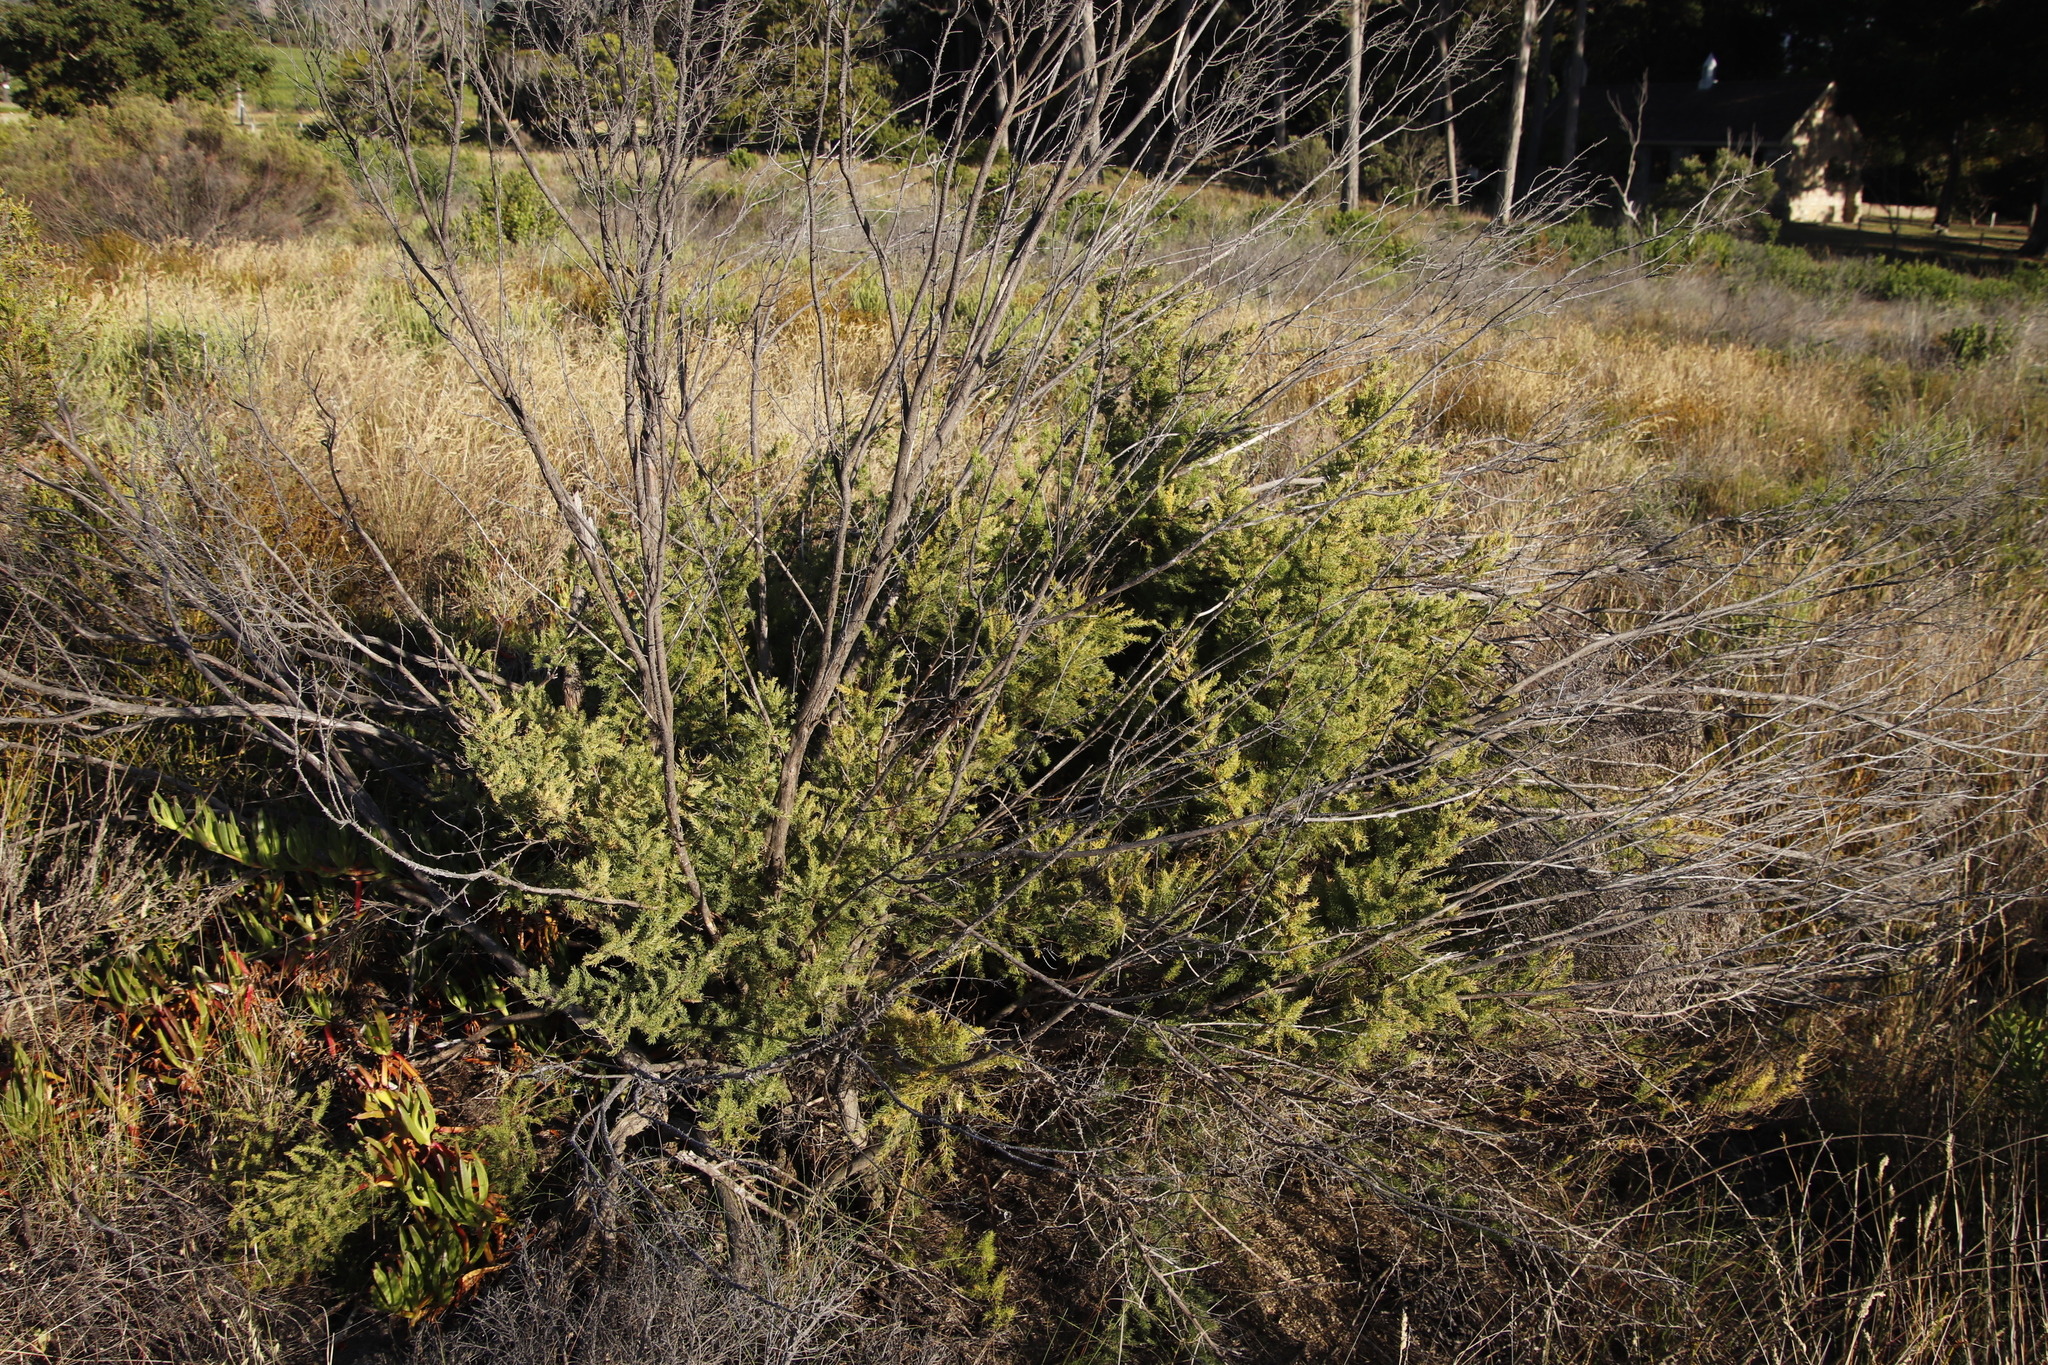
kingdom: Plantae
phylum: Tracheophyta
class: Liliopsida
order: Asparagales
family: Asparagaceae
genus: Asparagus
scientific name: Asparagus rubicundus
